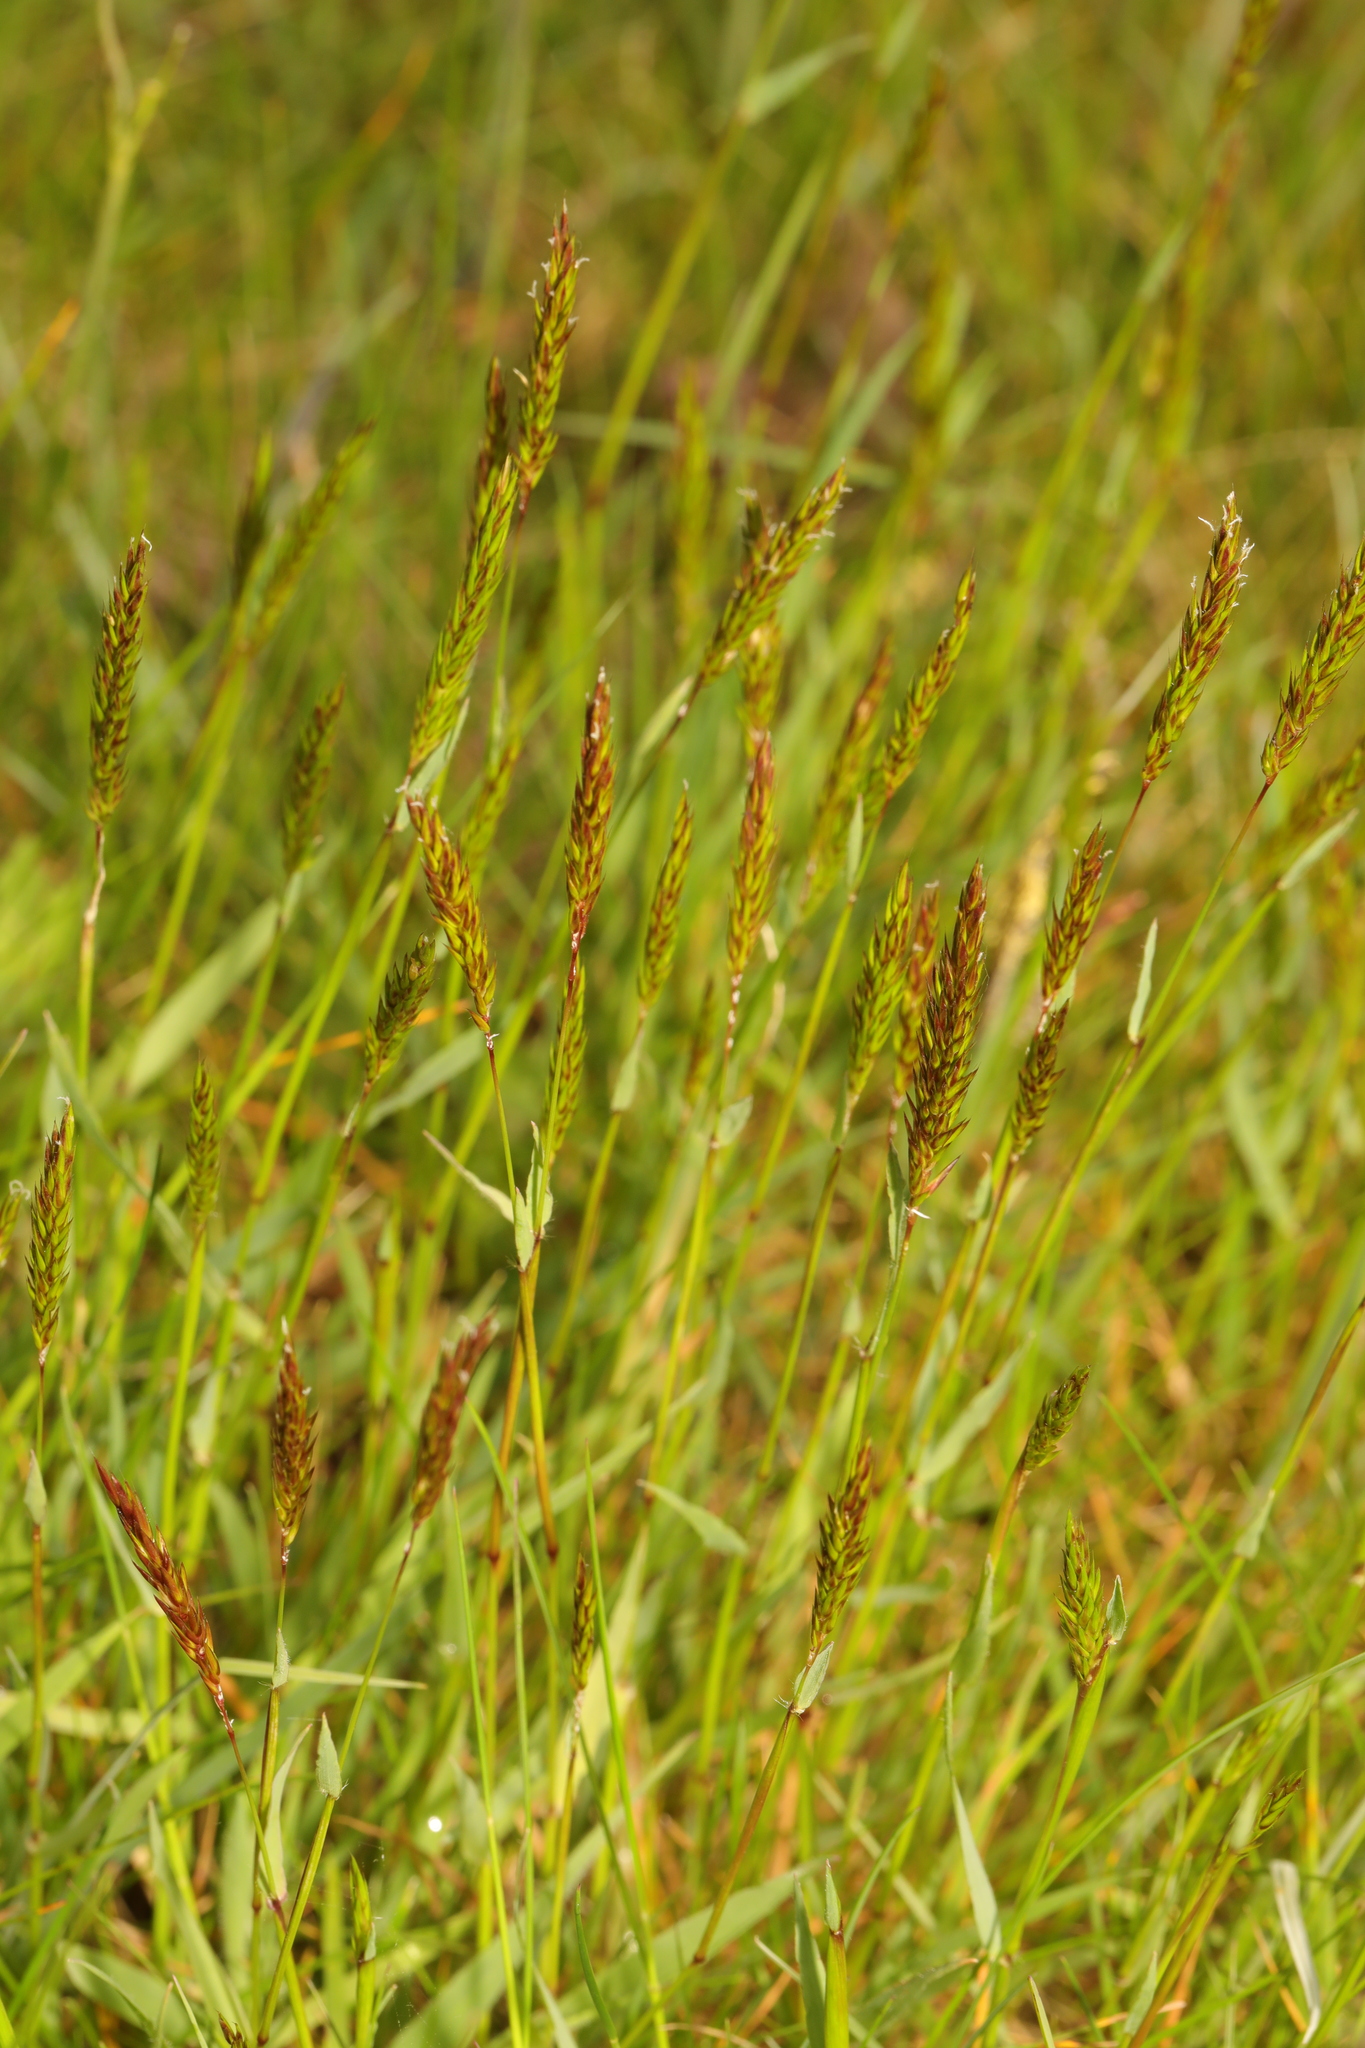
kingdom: Plantae
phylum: Tracheophyta
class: Liliopsida
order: Poales
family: Poaceae
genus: Anthoxanthum
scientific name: Anthoxanthum odoratum
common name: Sweet vernalgrass
